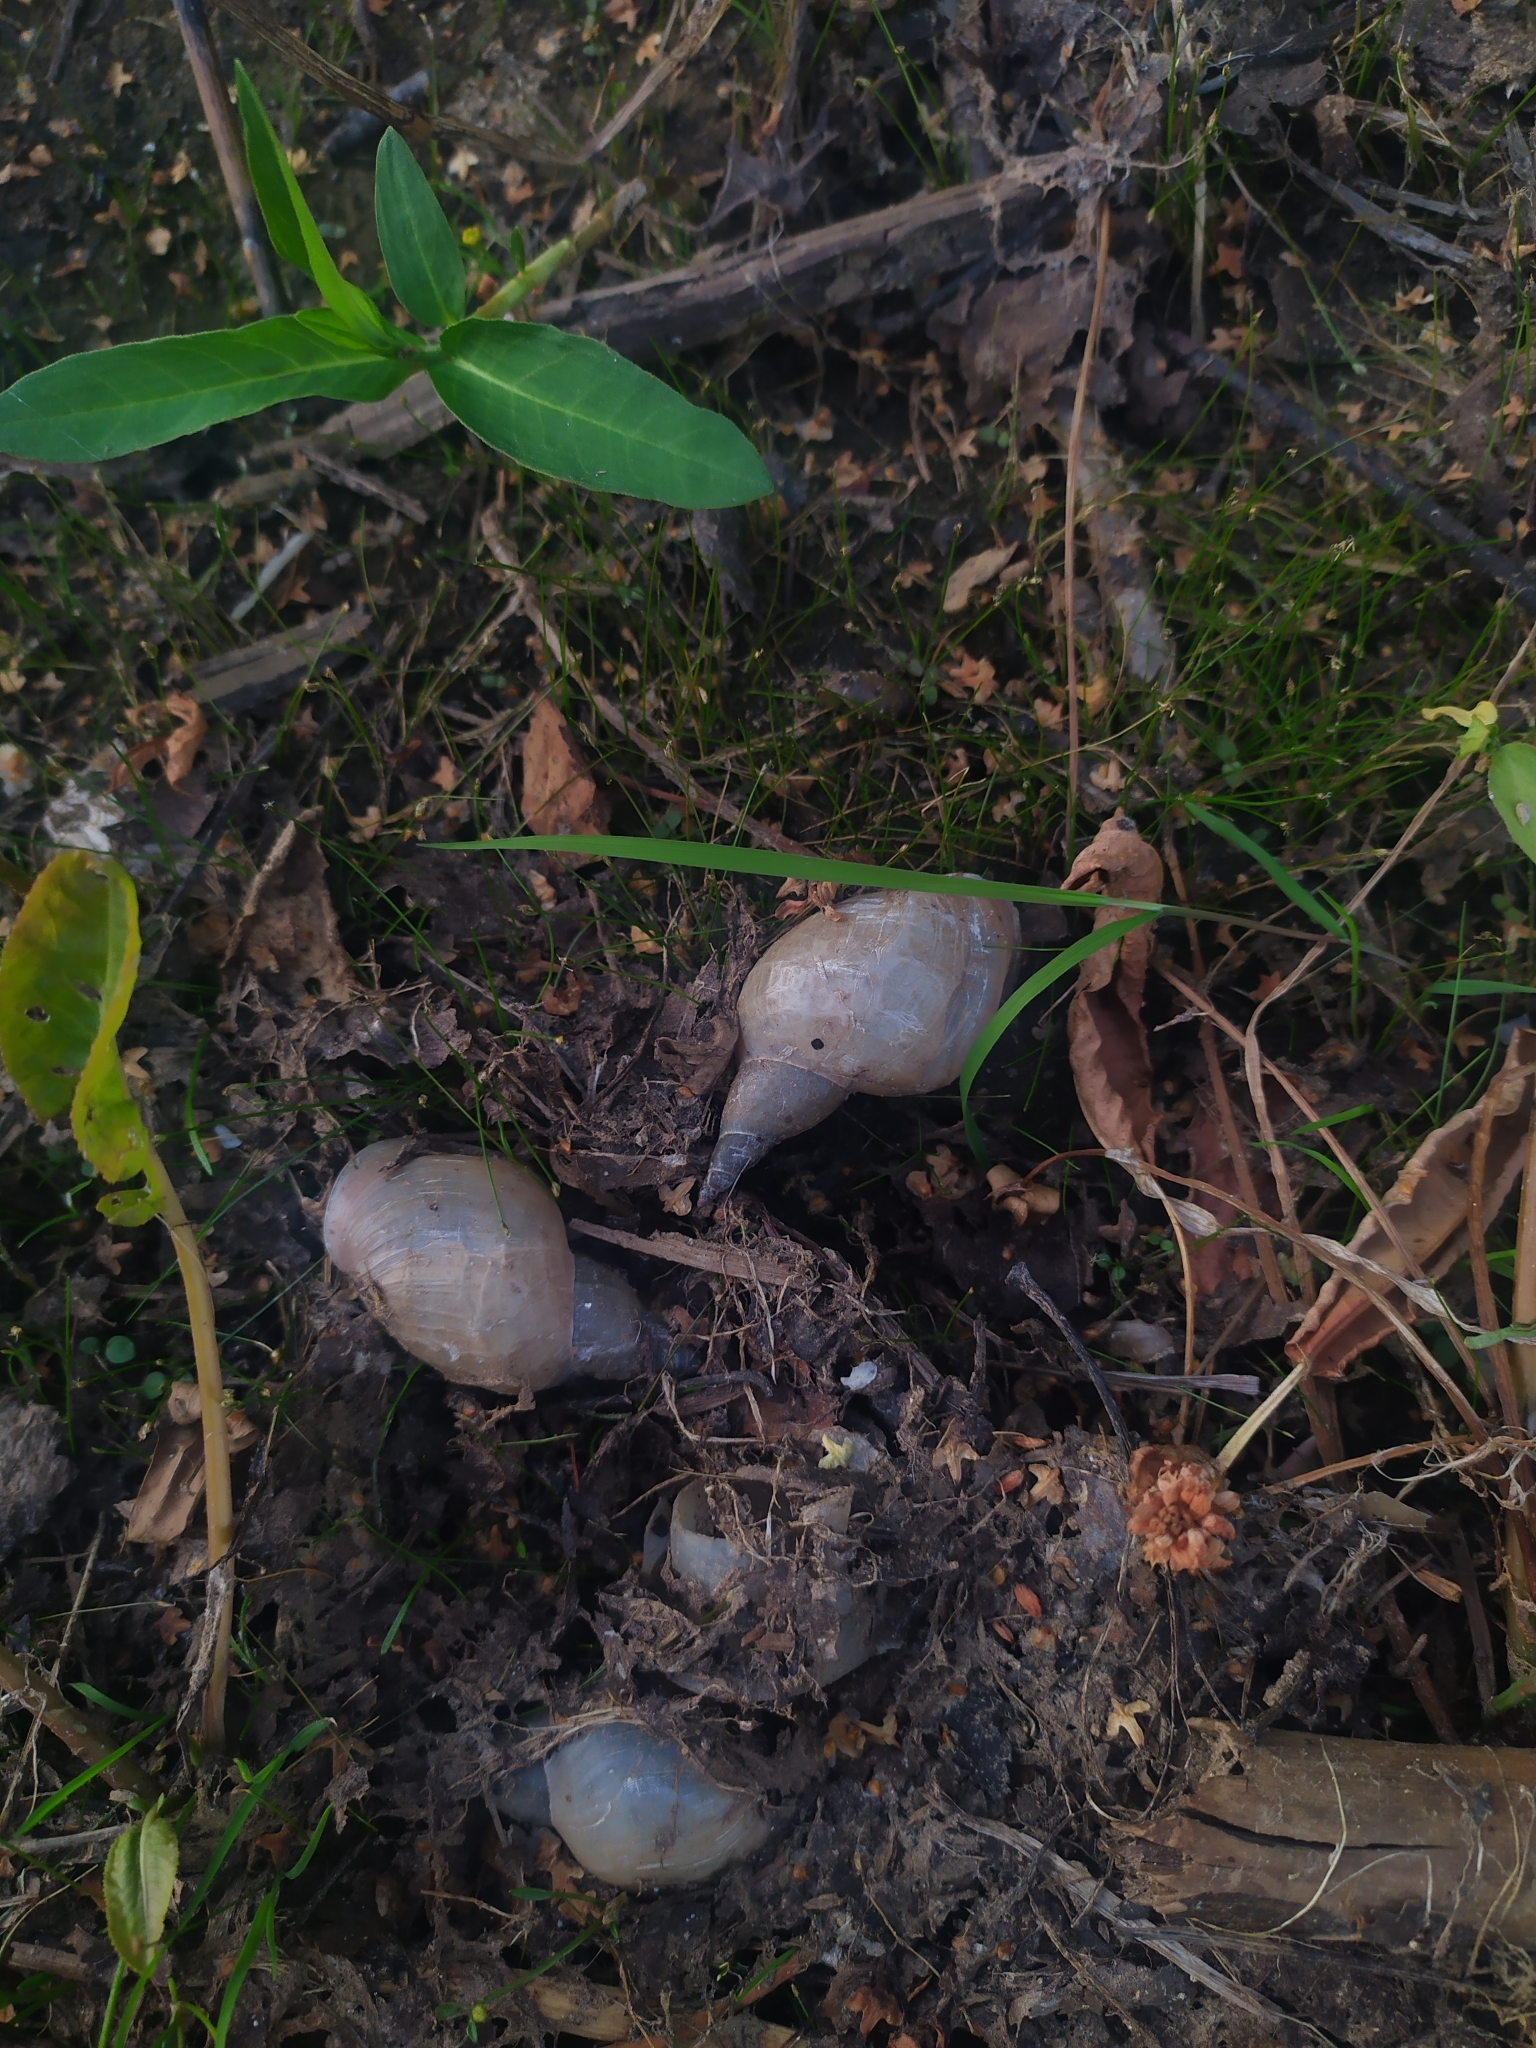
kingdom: Animalia
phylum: Mollusca
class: Gastropoda
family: Lymnaeidae
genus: Lymnaea
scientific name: Lymnaea stagnalis
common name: Great pond snail
